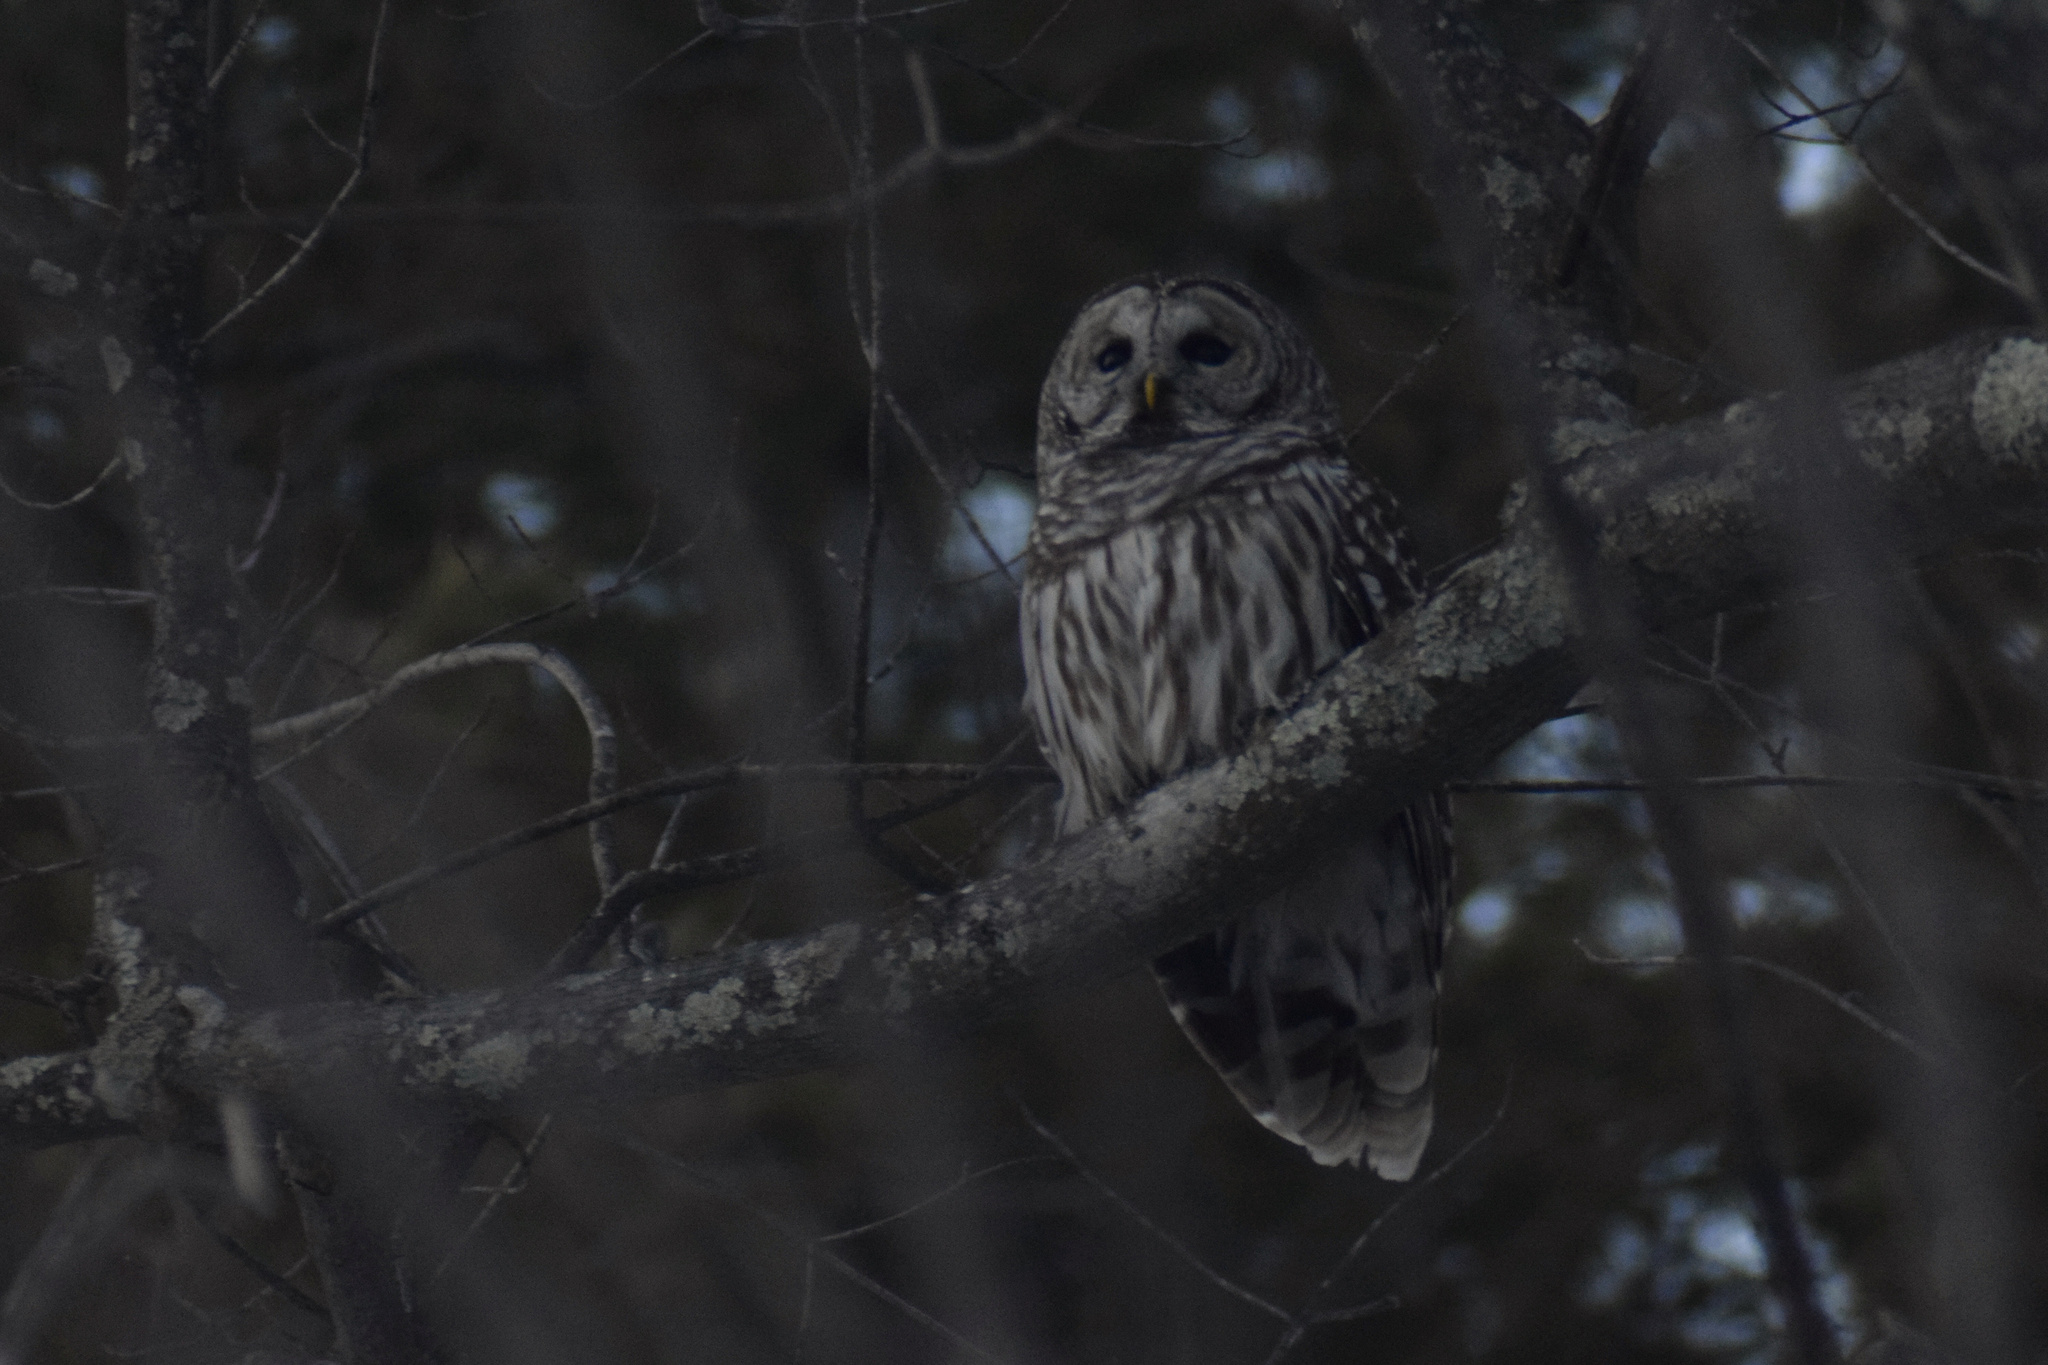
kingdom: Animalia
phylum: Chordata
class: Aves
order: Strigiformes
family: Strigidae
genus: Strix
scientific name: Strix varia
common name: Barred owl
